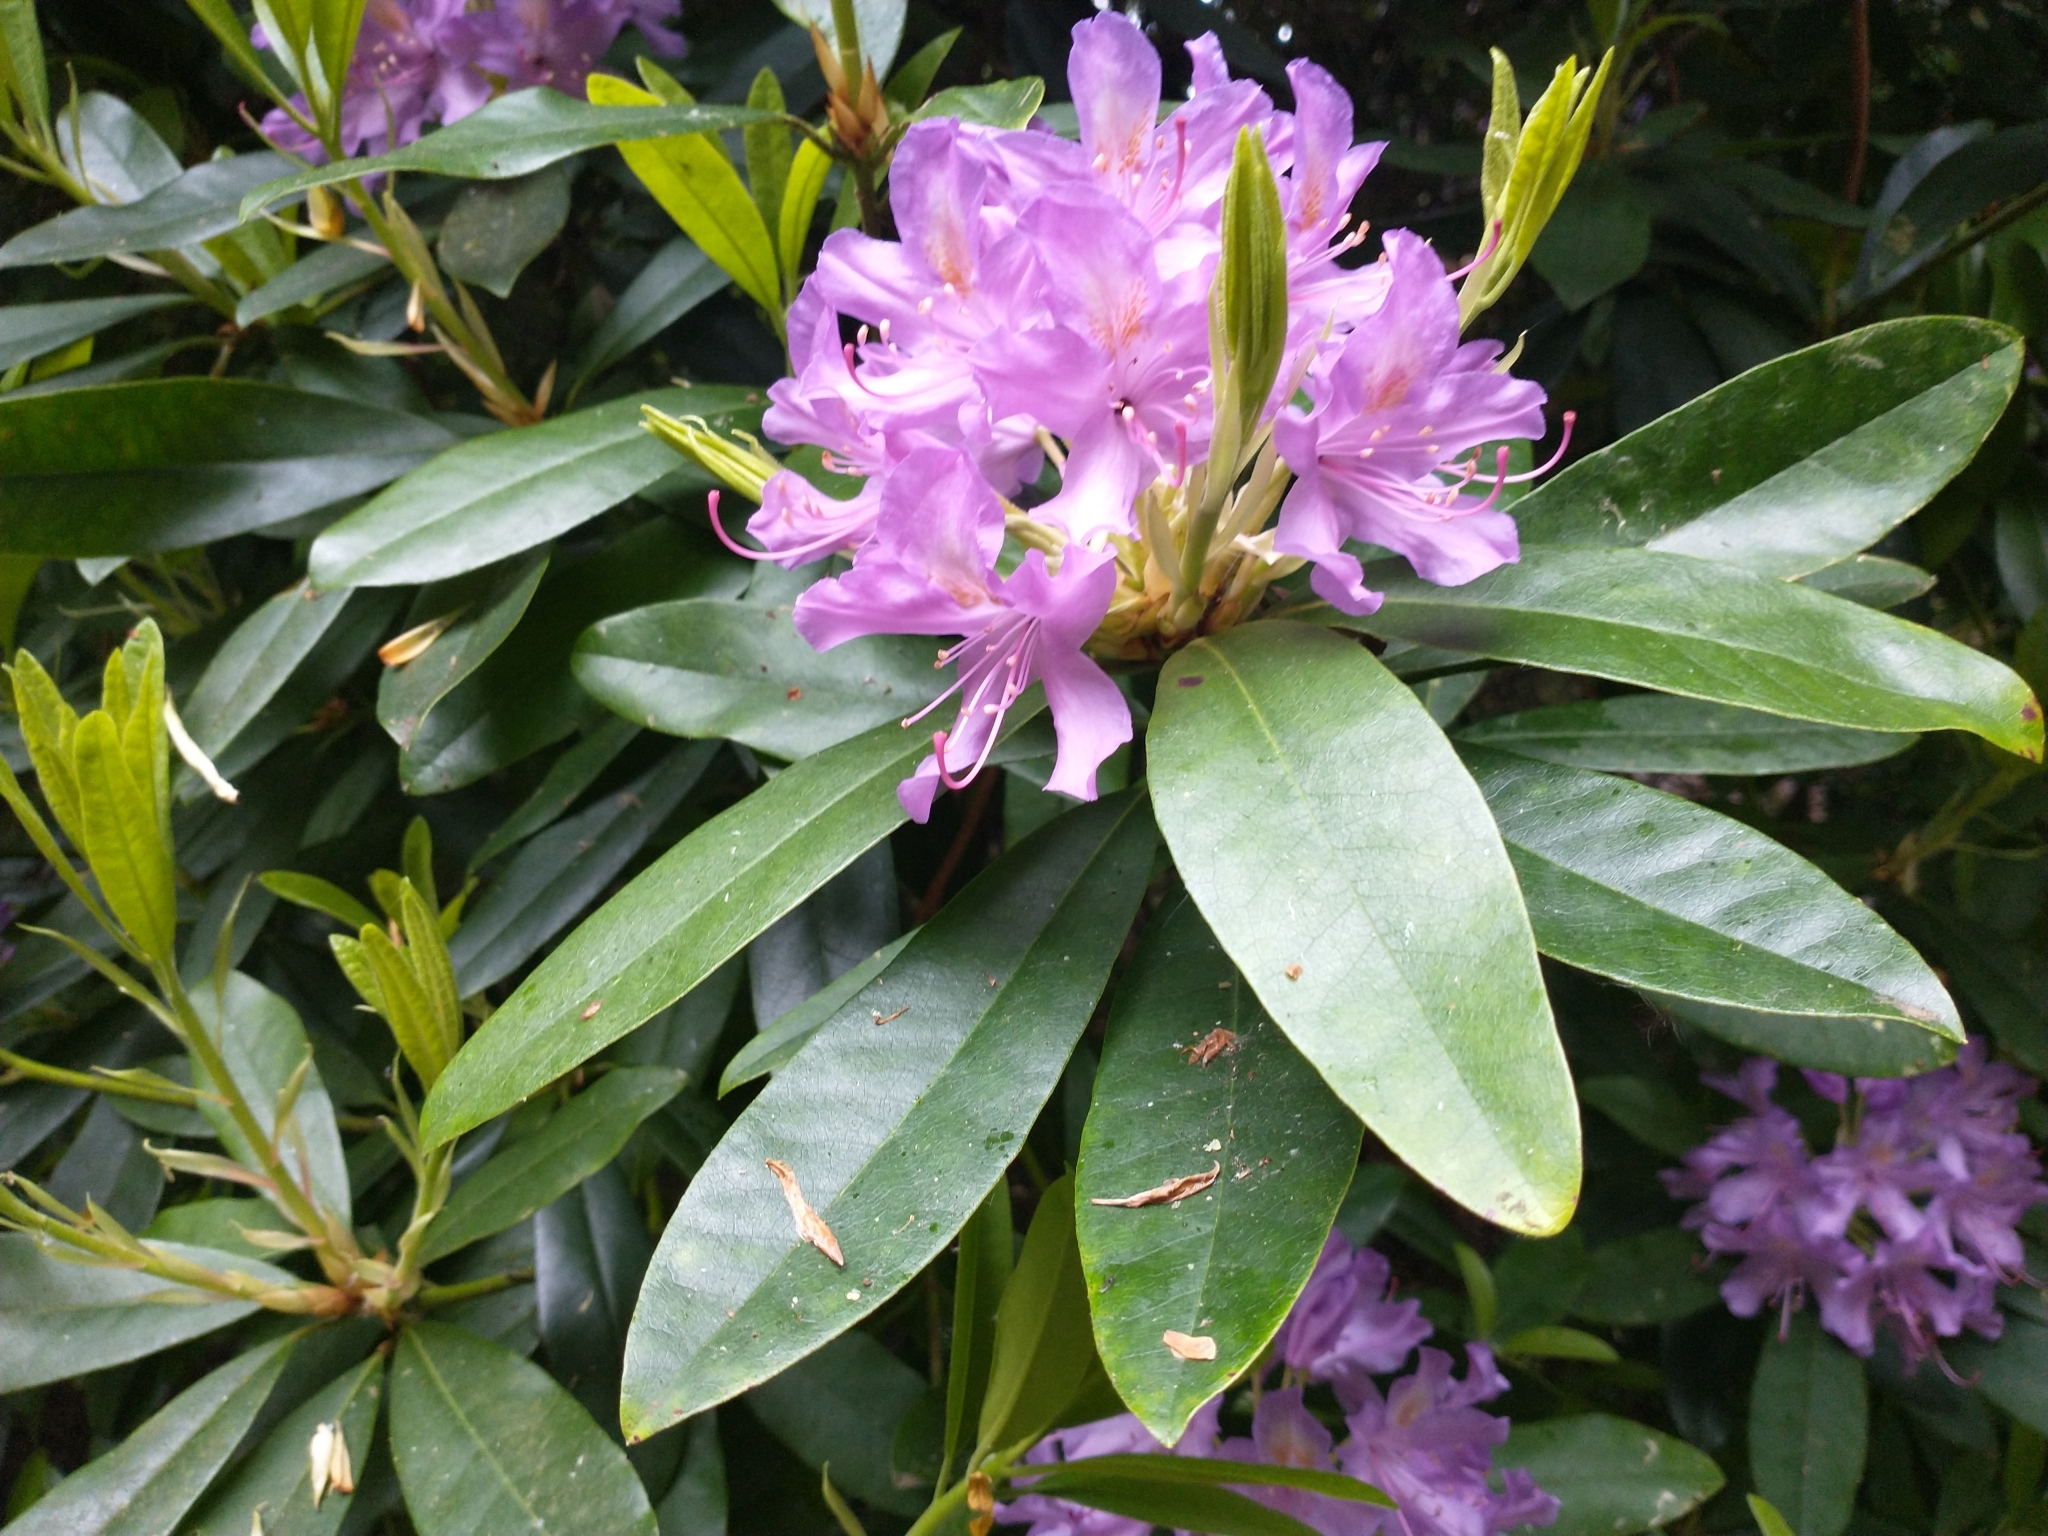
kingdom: Plantae
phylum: Tracheophyta
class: Magnoliopsida
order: Ericales
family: Ericaceae
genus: Rhododendron
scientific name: Rhododendron ponticum
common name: Rhododendron
